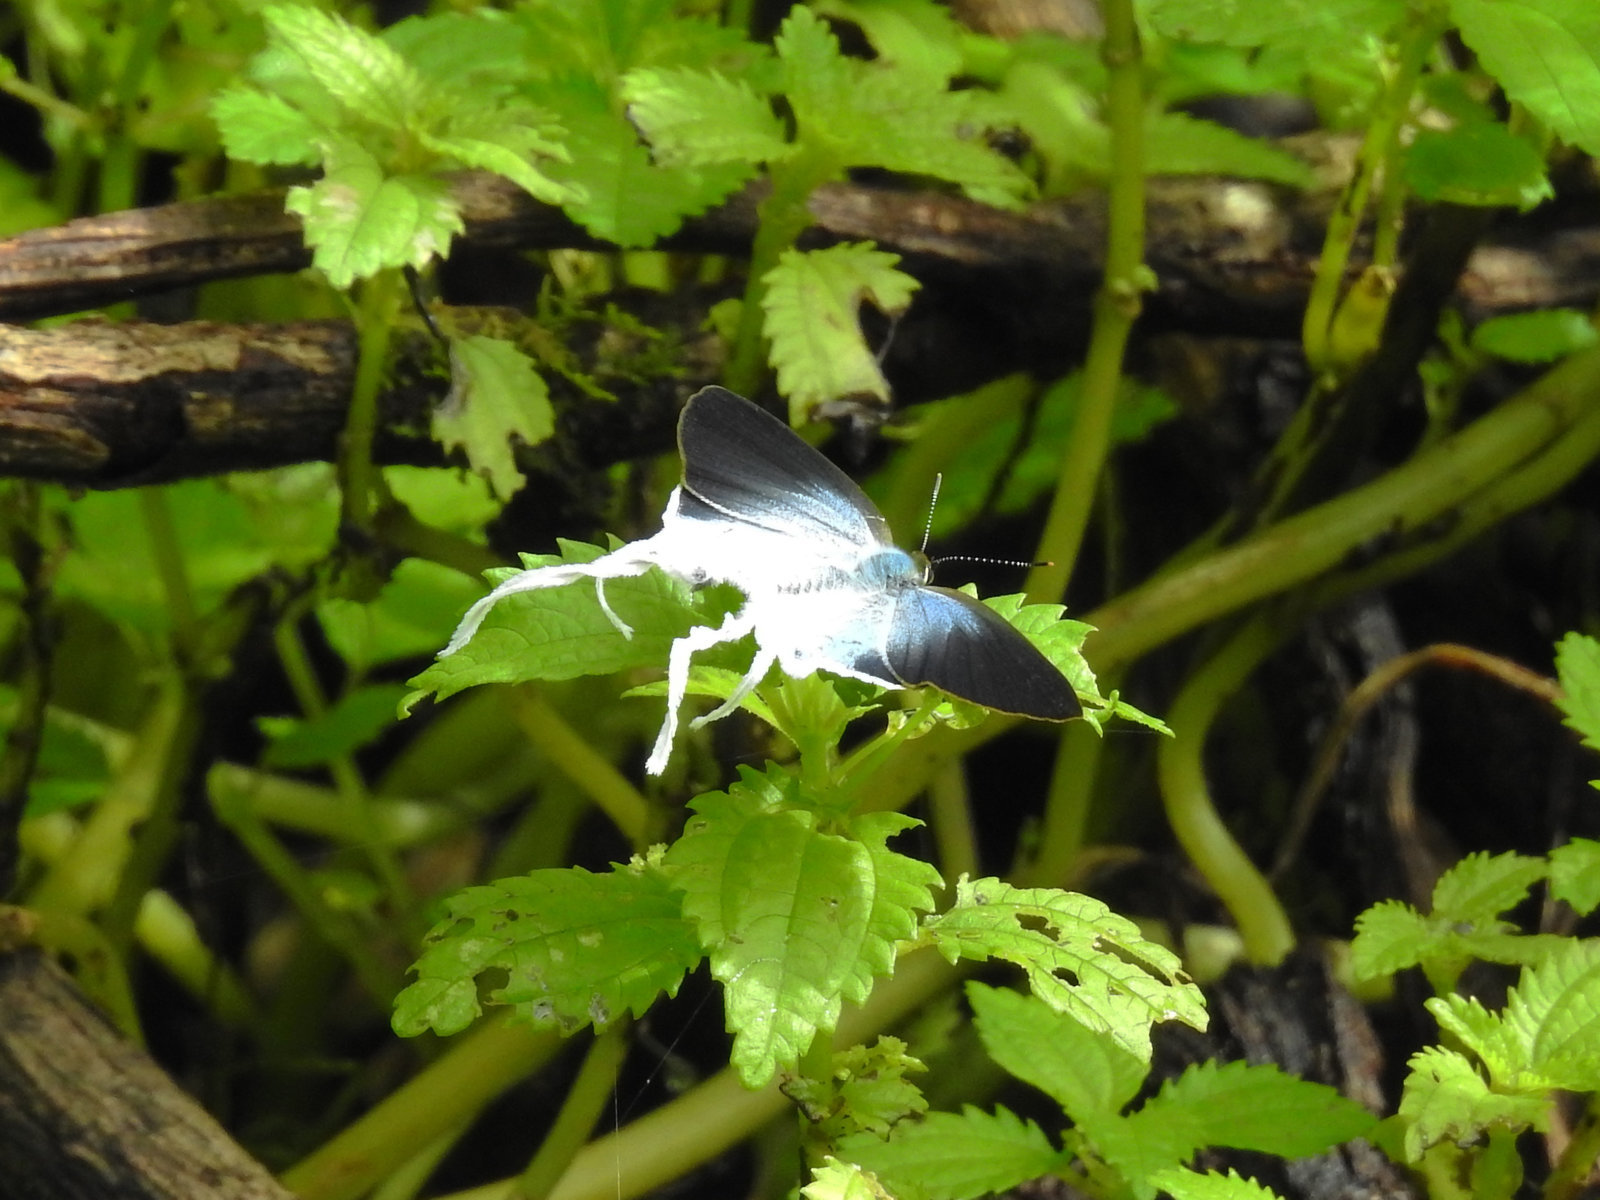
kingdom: Animalia
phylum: Arthropoda
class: Insecta
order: Lepidoptera
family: Lycaenidae
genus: Zeltus
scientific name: Zeltus amasa
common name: Fluffy tit
